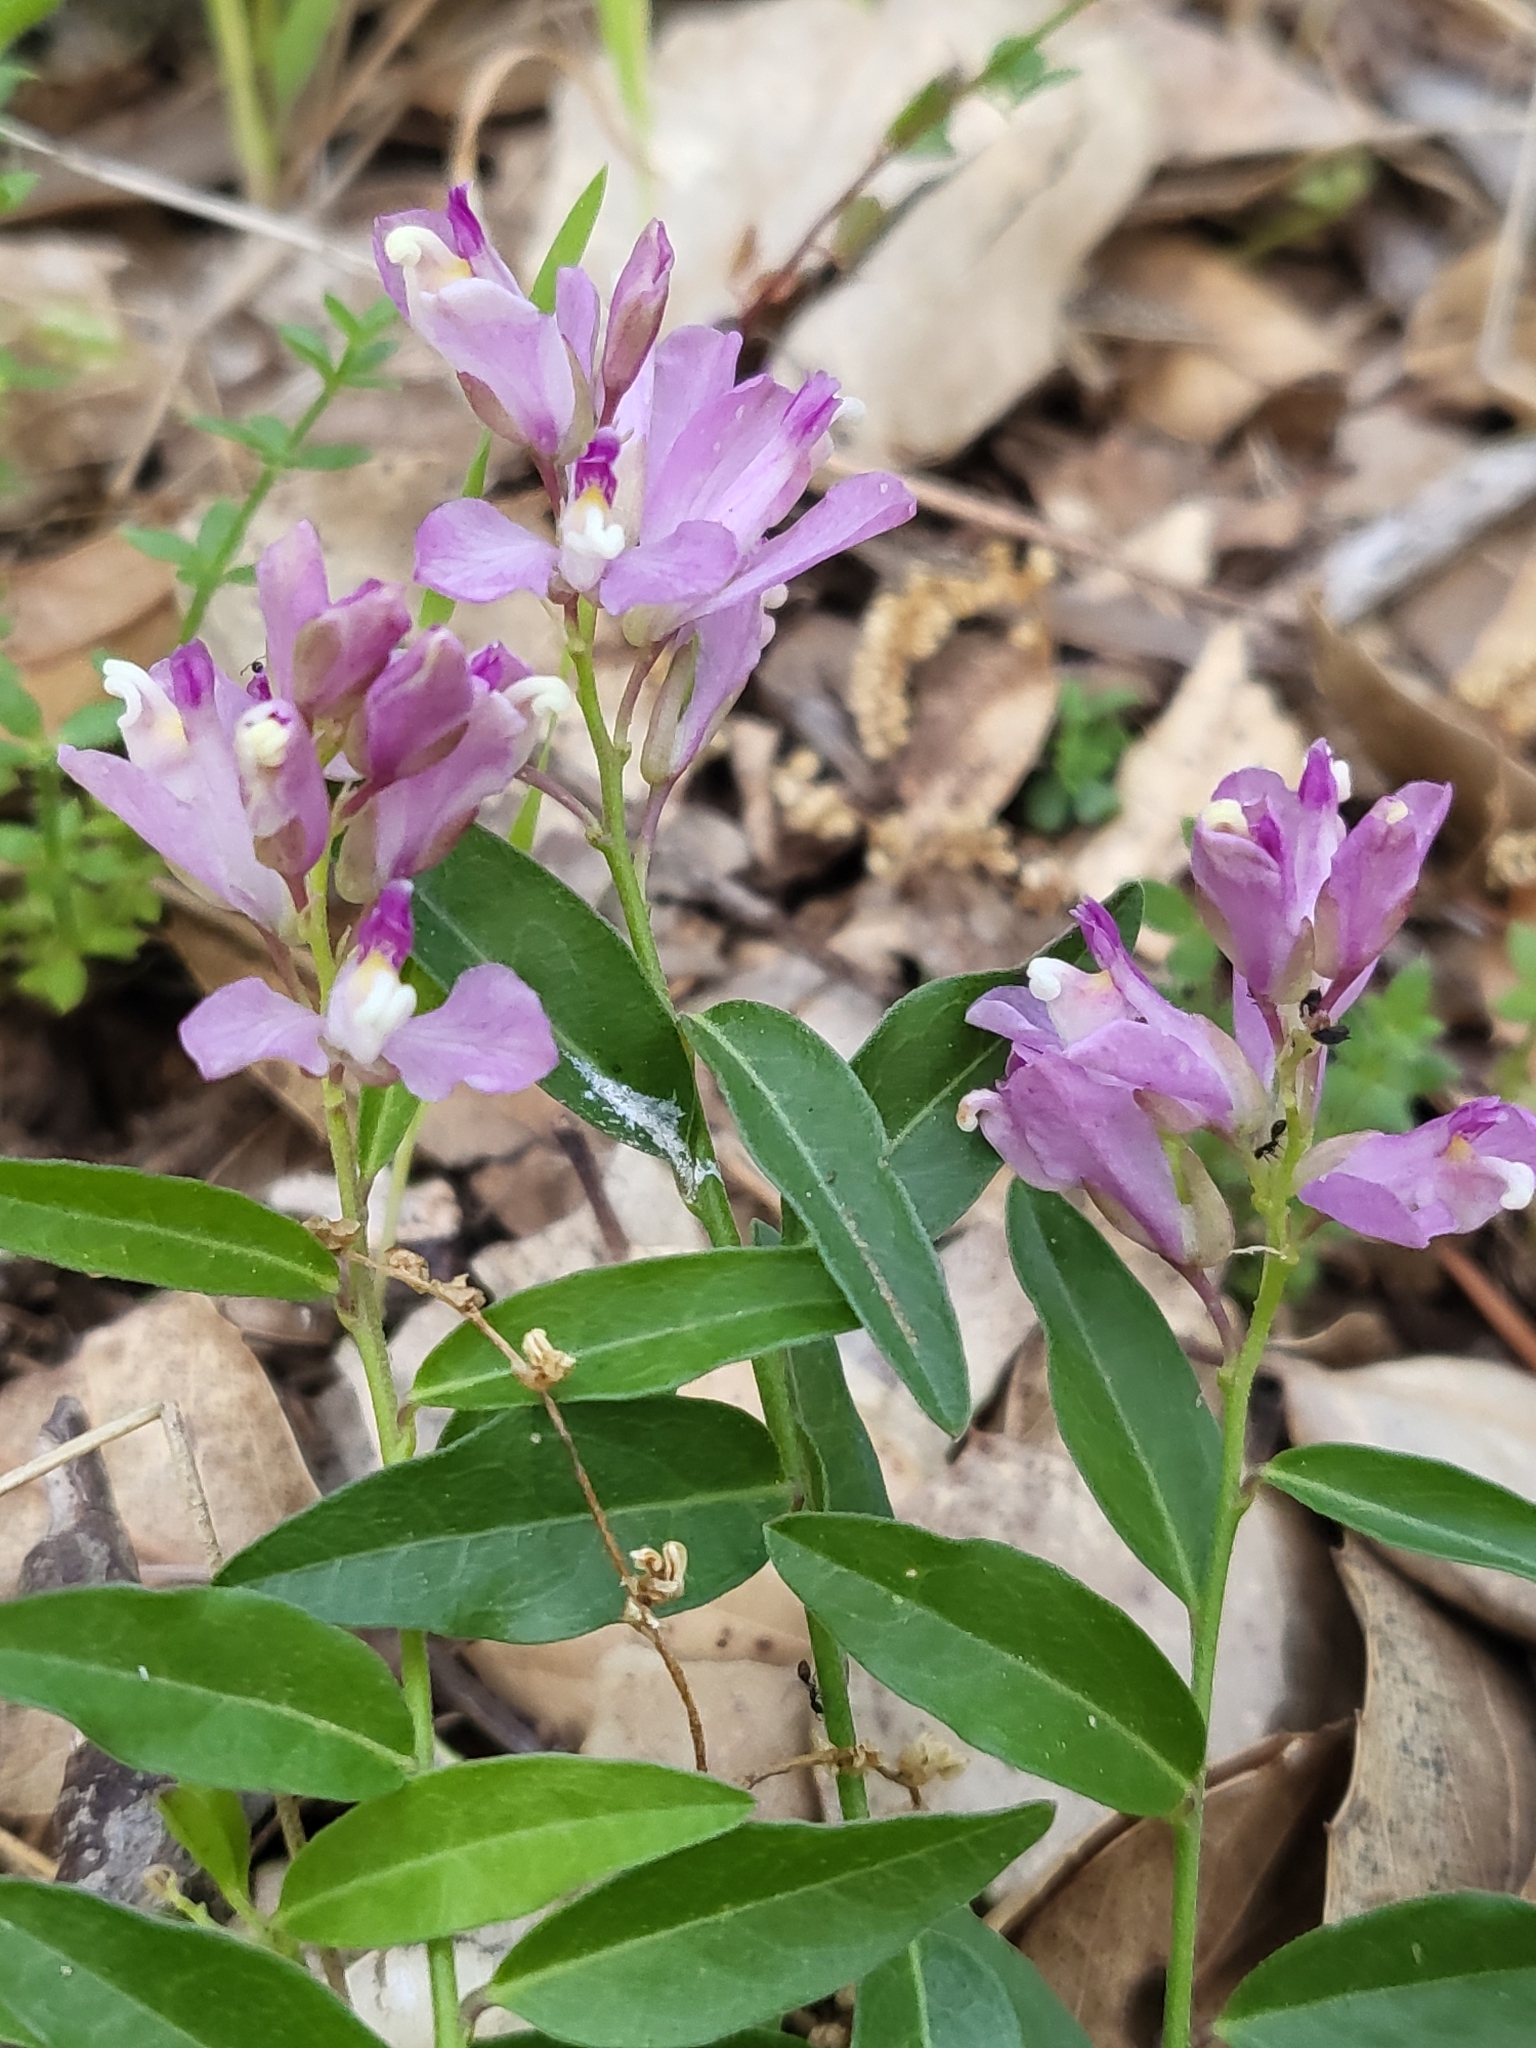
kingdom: Plantae
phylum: Tracheophyta
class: Magnoliopsida
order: Fabales
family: Polygalaceae
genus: Rhinotropis
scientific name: Rhinotropis californica
